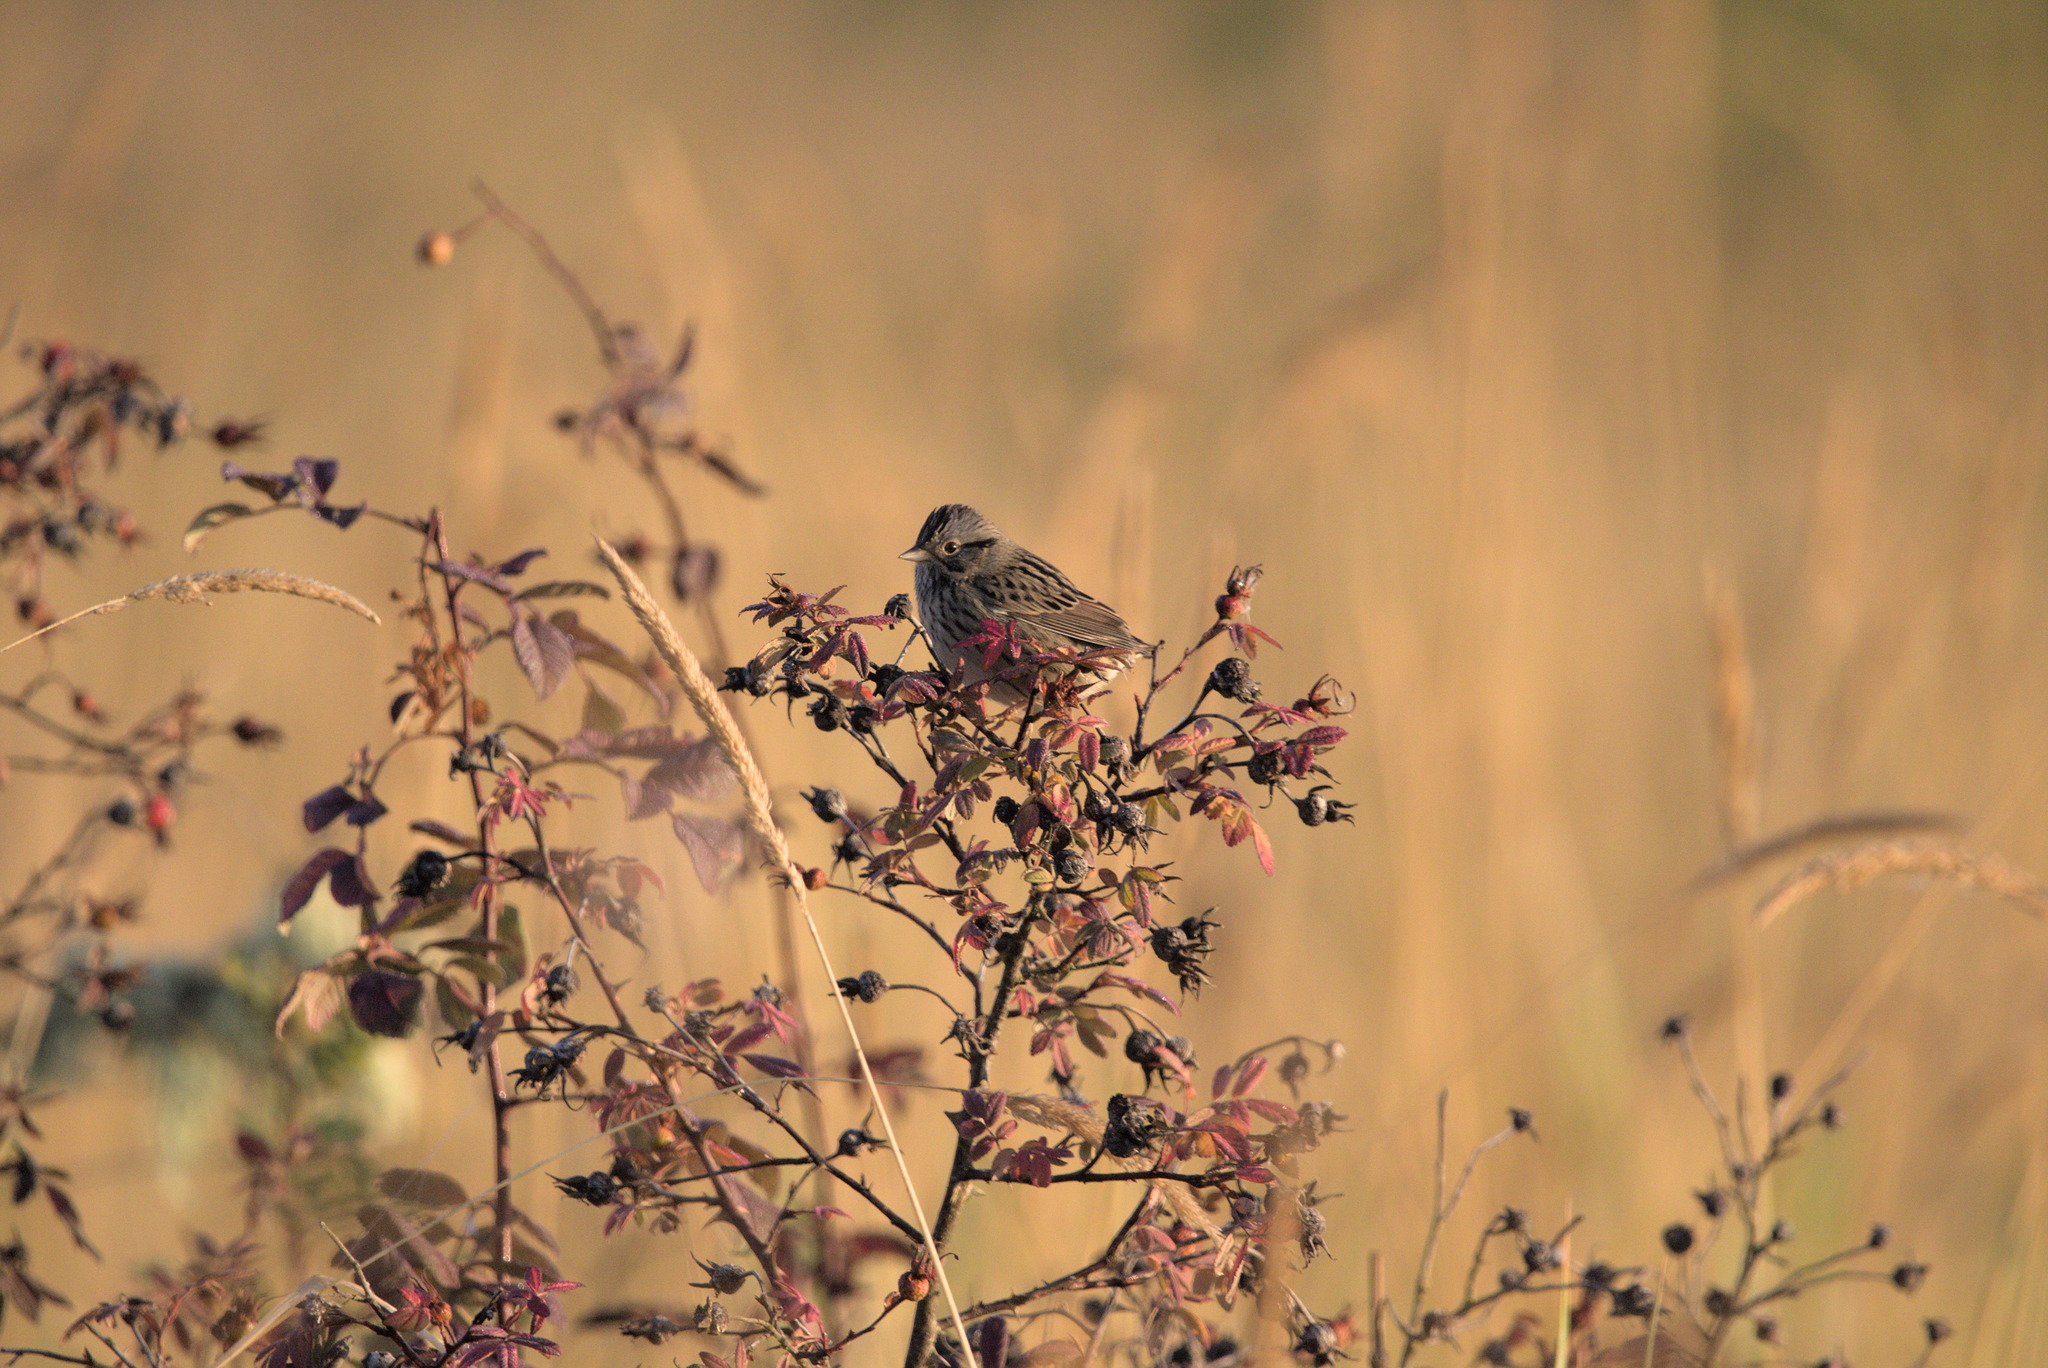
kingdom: Animalia
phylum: Chordata
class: Aves
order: Passeriformes
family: Passerellidae
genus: Melospiza
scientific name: Melospiza lincolnii
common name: Lincoln's sparrow
